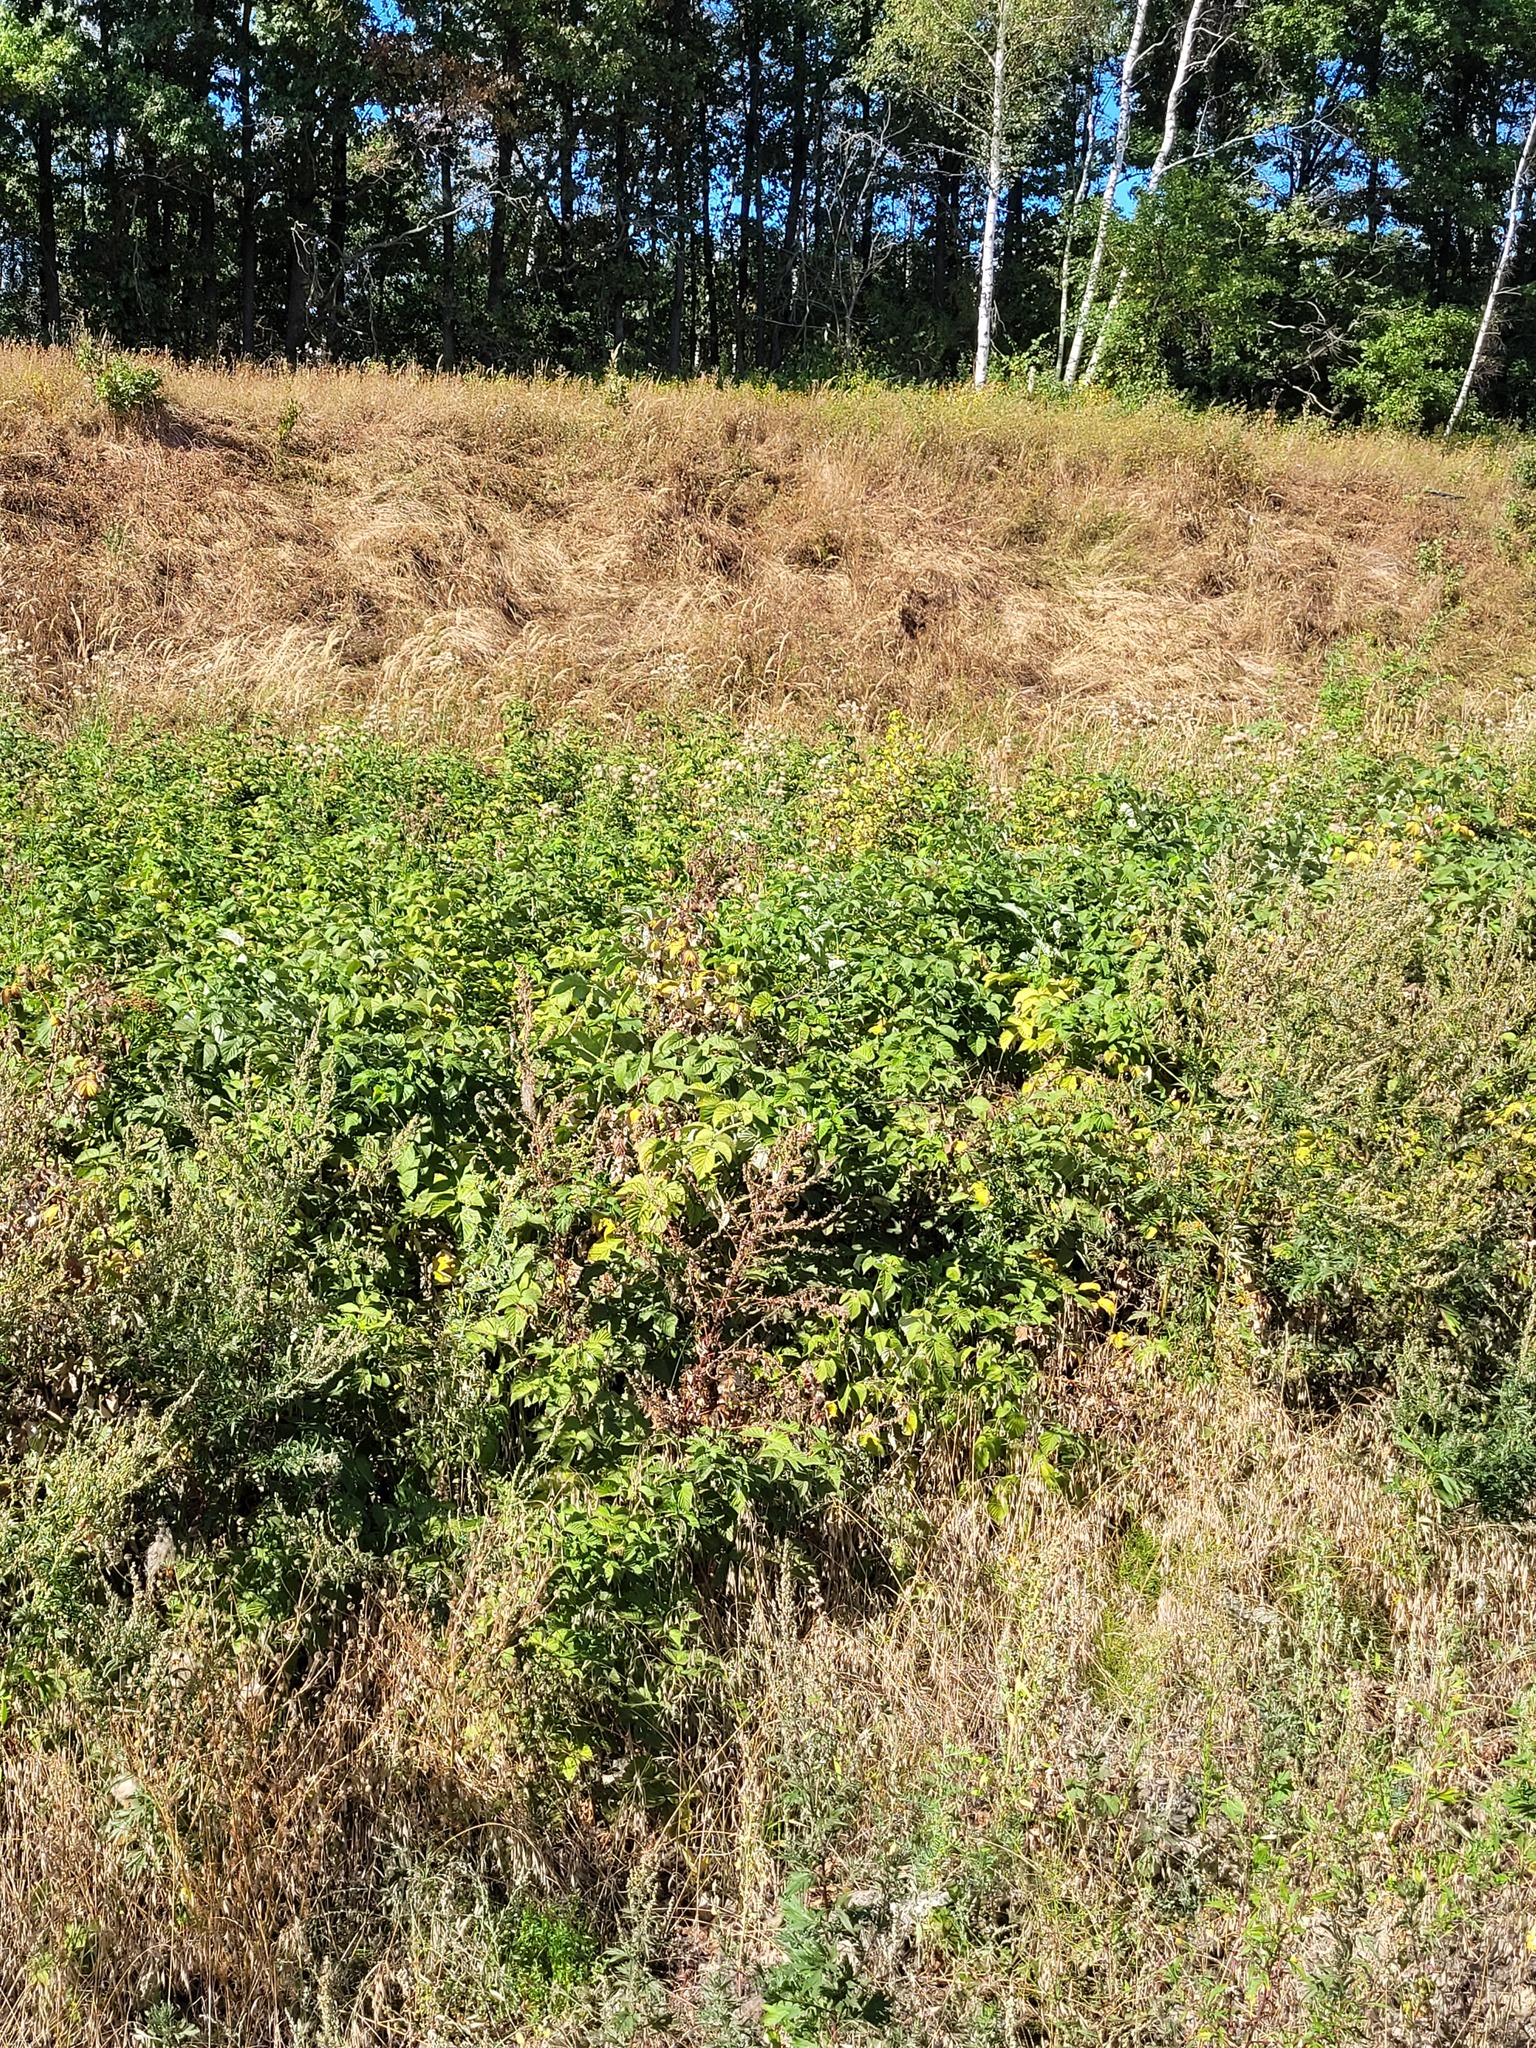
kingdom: Plantae
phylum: Tracheophyta
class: Magnoliopsida
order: Rosales
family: Rosaceae
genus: Rubus
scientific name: Rubus idaeus
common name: Raspberry
